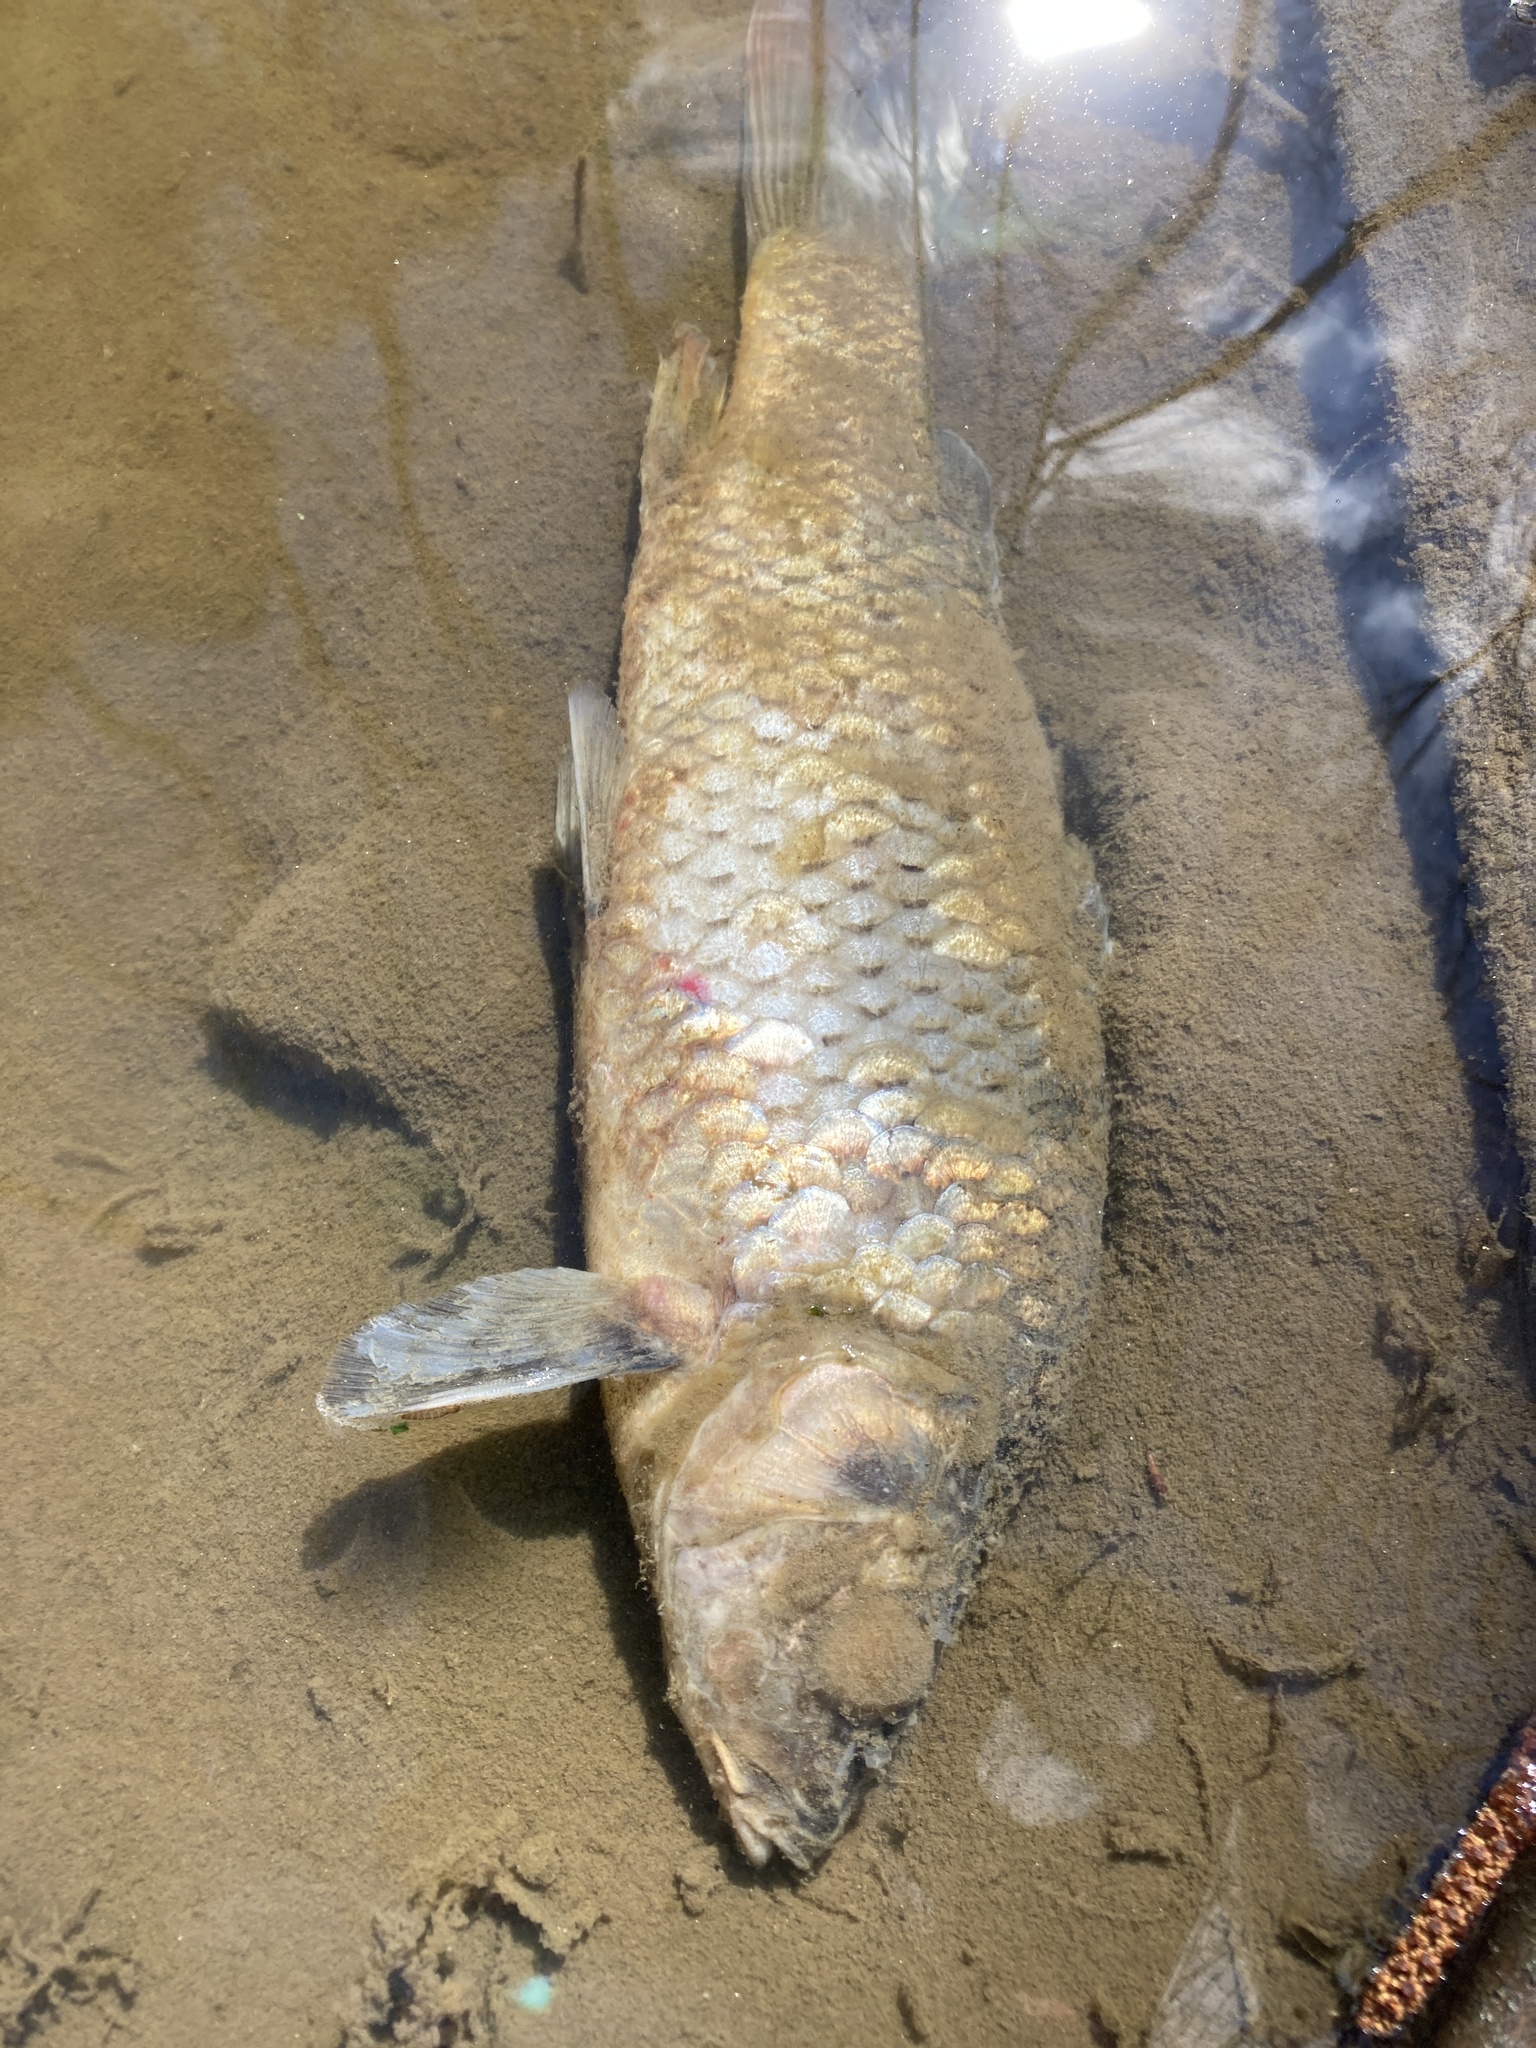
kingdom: Animalia
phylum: Chordata
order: Cypriniformes
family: Cyprinidae
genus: Cyprinus
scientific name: Cyprinus carpio
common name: Common carp
